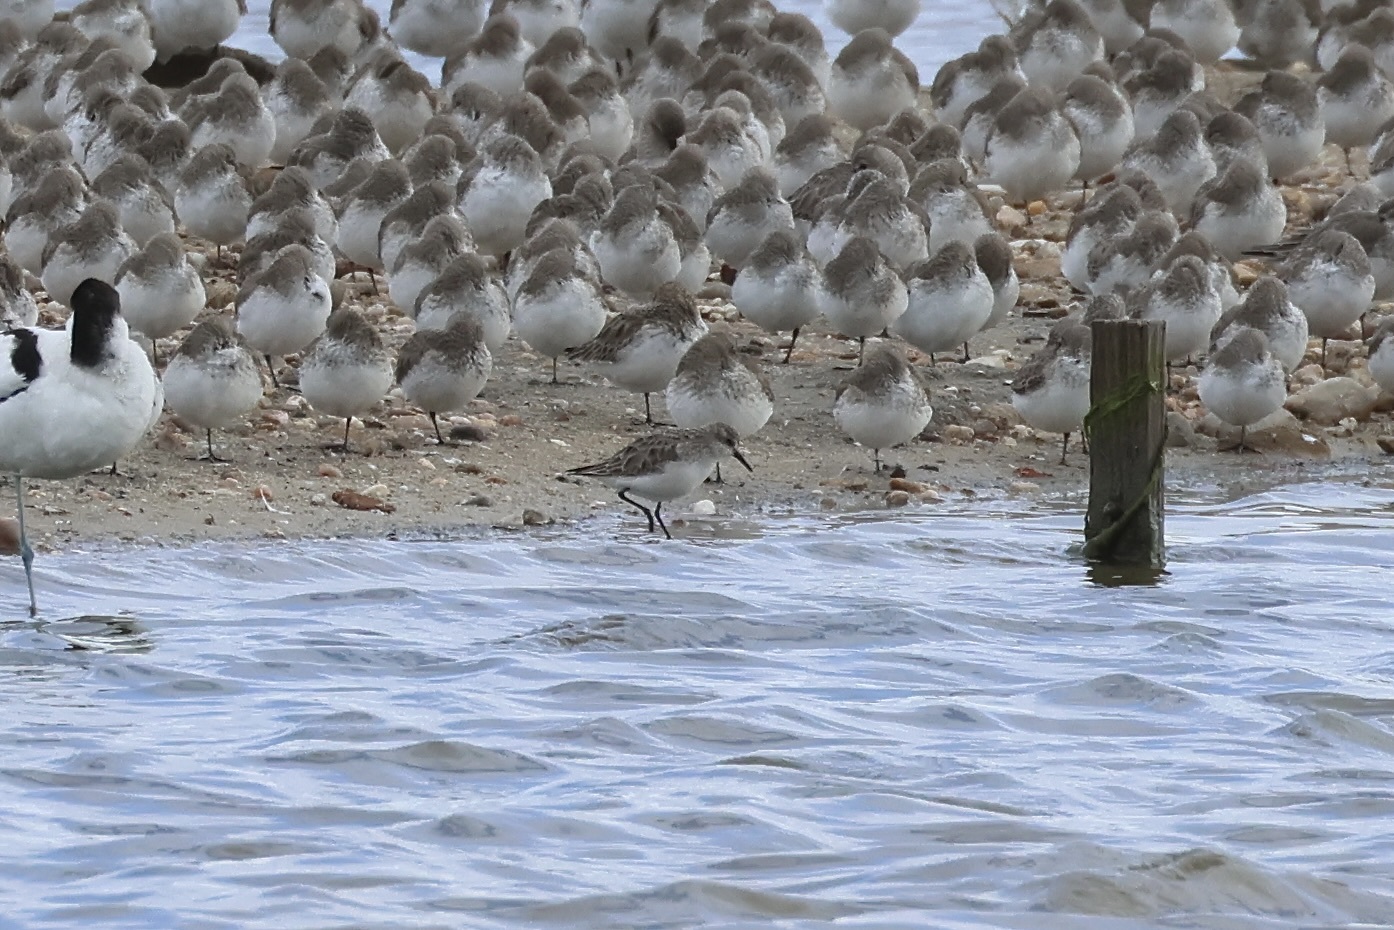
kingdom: Animalia
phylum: Chordata
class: Aves
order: Charadriiformes
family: Scolopacidae
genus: Calidris
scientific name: Calidris minuta
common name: Little stint
